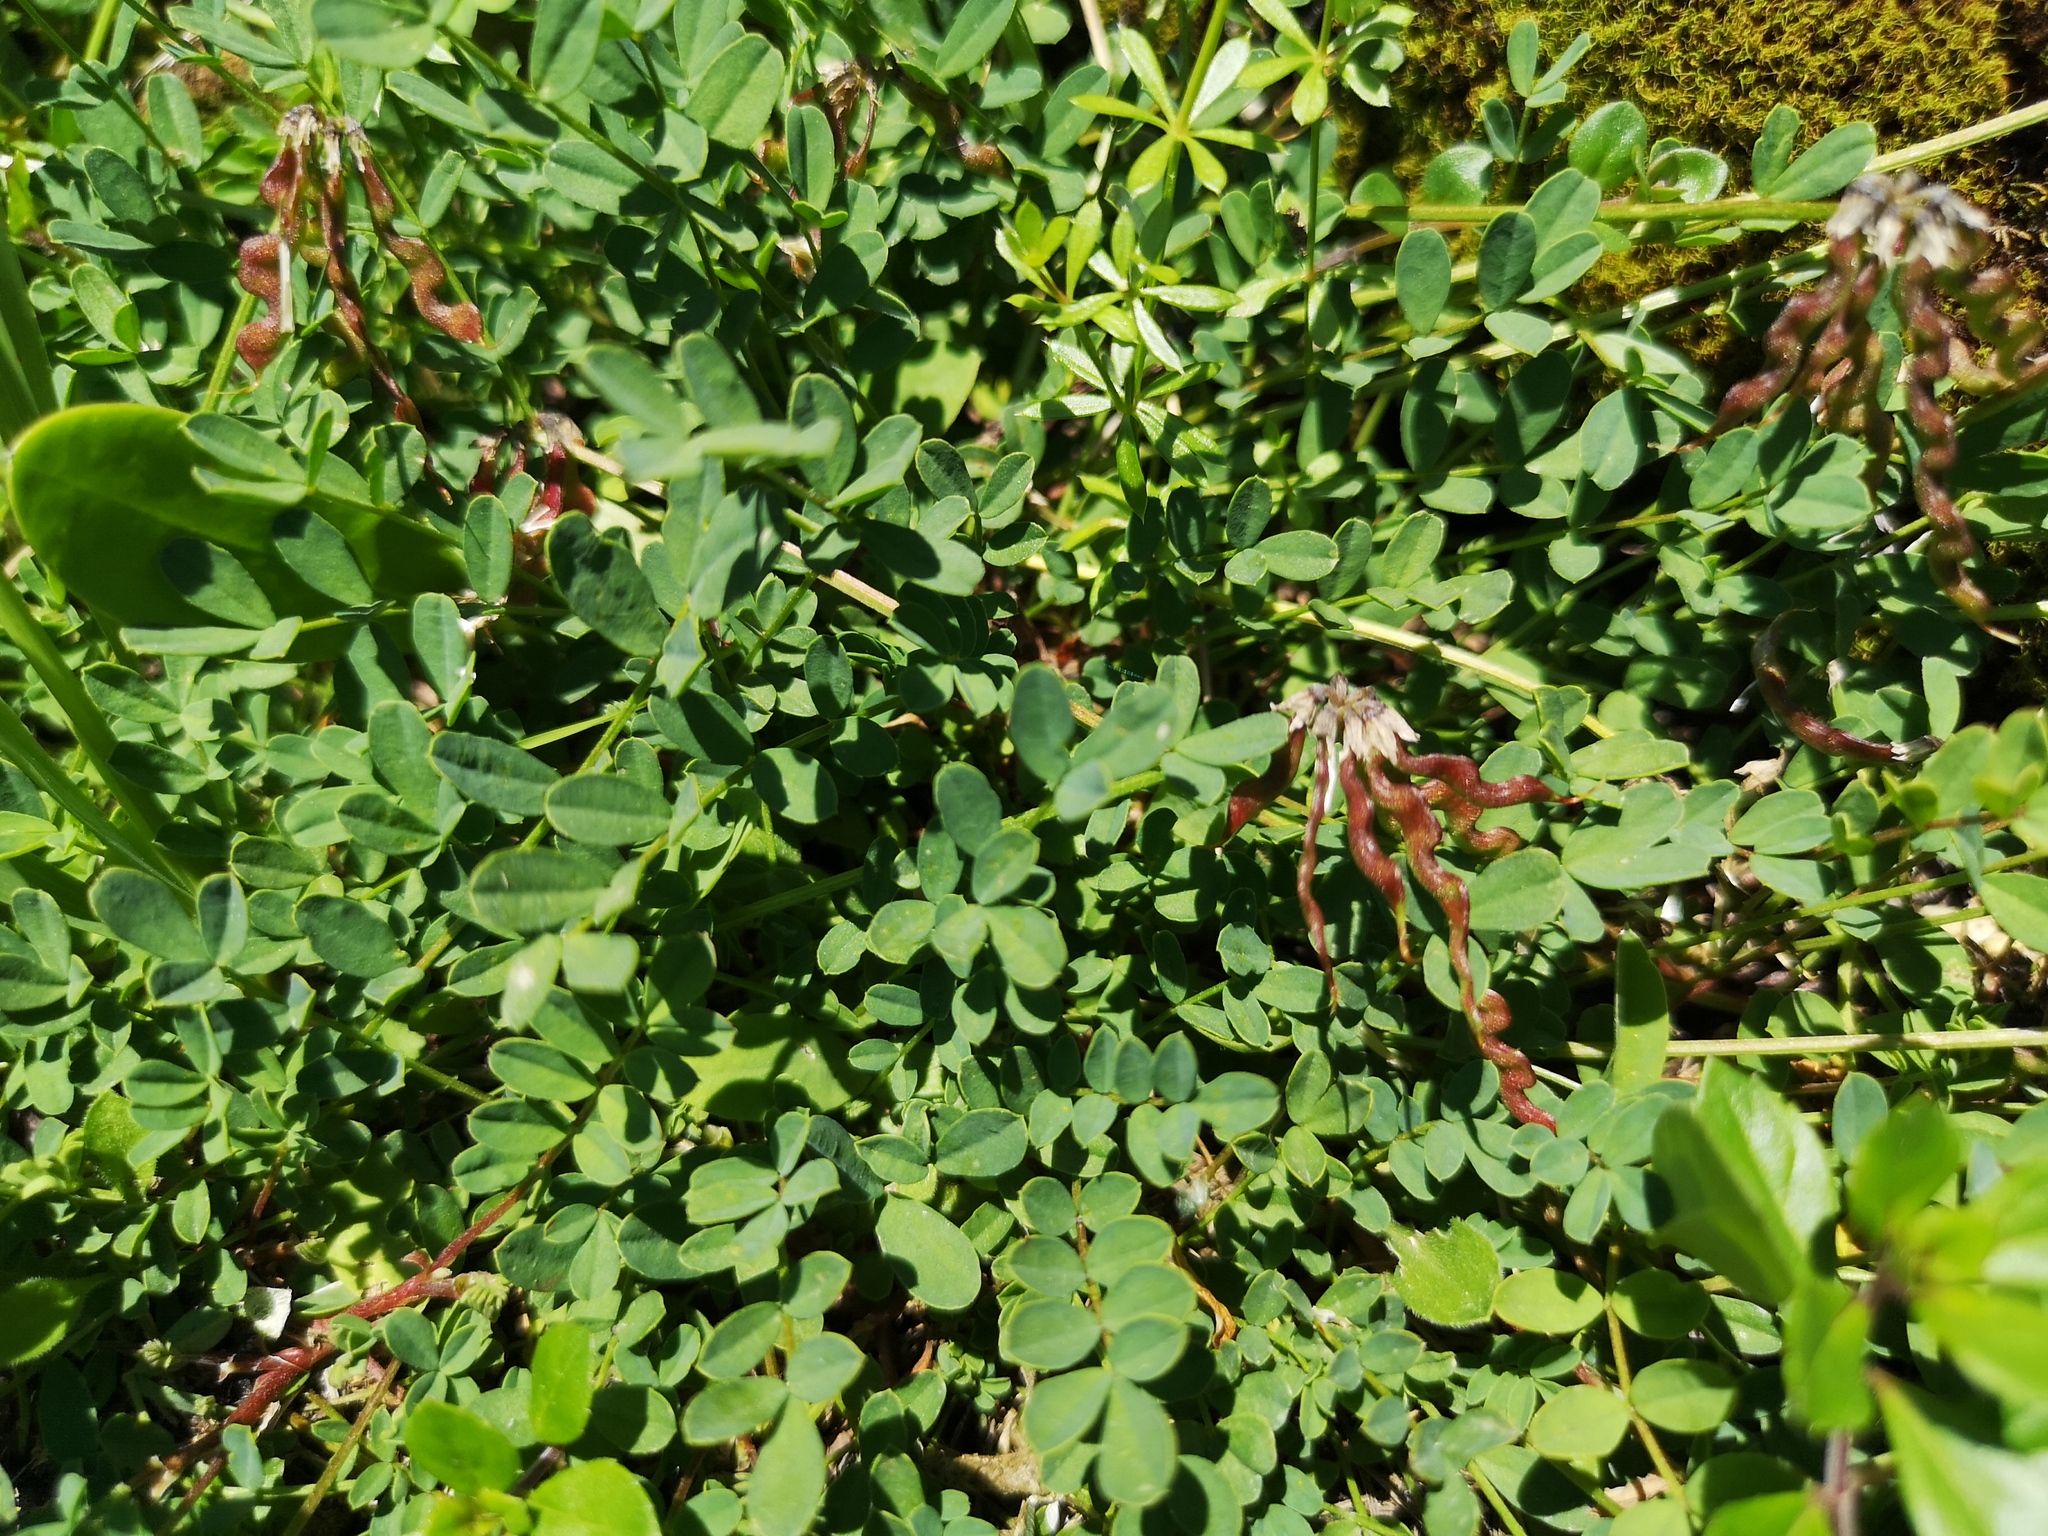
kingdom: Plantae
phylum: Tracheophyta
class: Magnoliopsida
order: Fabales
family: Fabaceae
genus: Hippocrepis
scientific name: Hippocrepis comosa
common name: Horseshoe vetch
